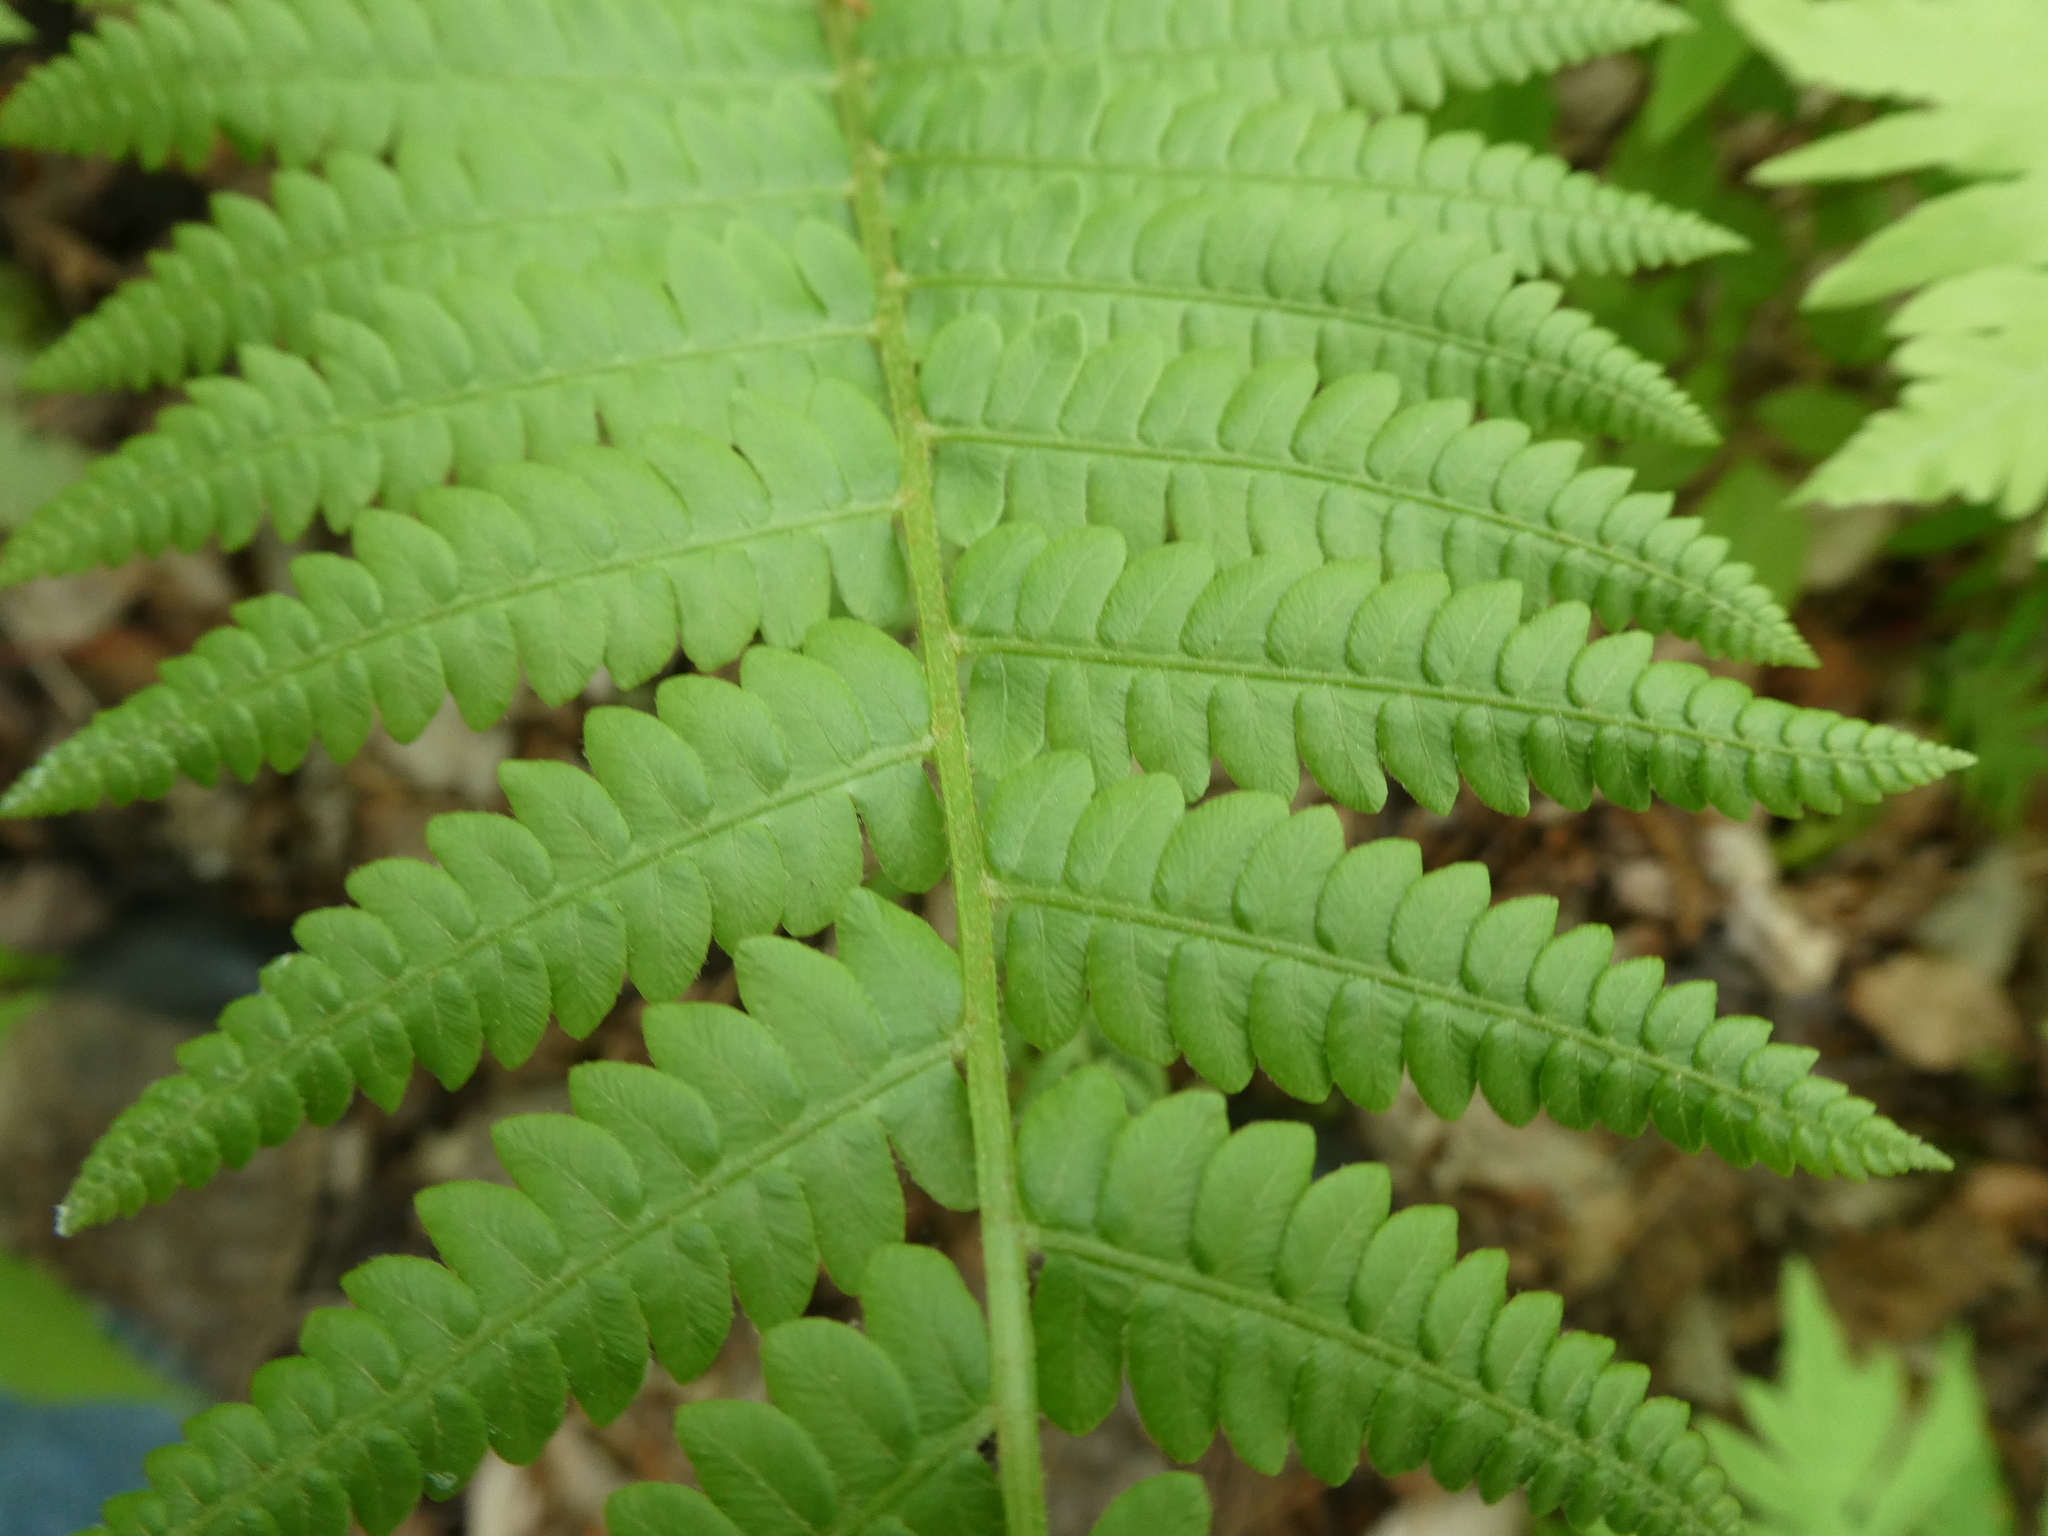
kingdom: Plantae
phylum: Tracheophyta
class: Polypodiopsida
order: Osmundales
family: Osmundaceae
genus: Osmundastrum
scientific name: Osmundastrum cinnamomeum
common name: Cinnamon fern
